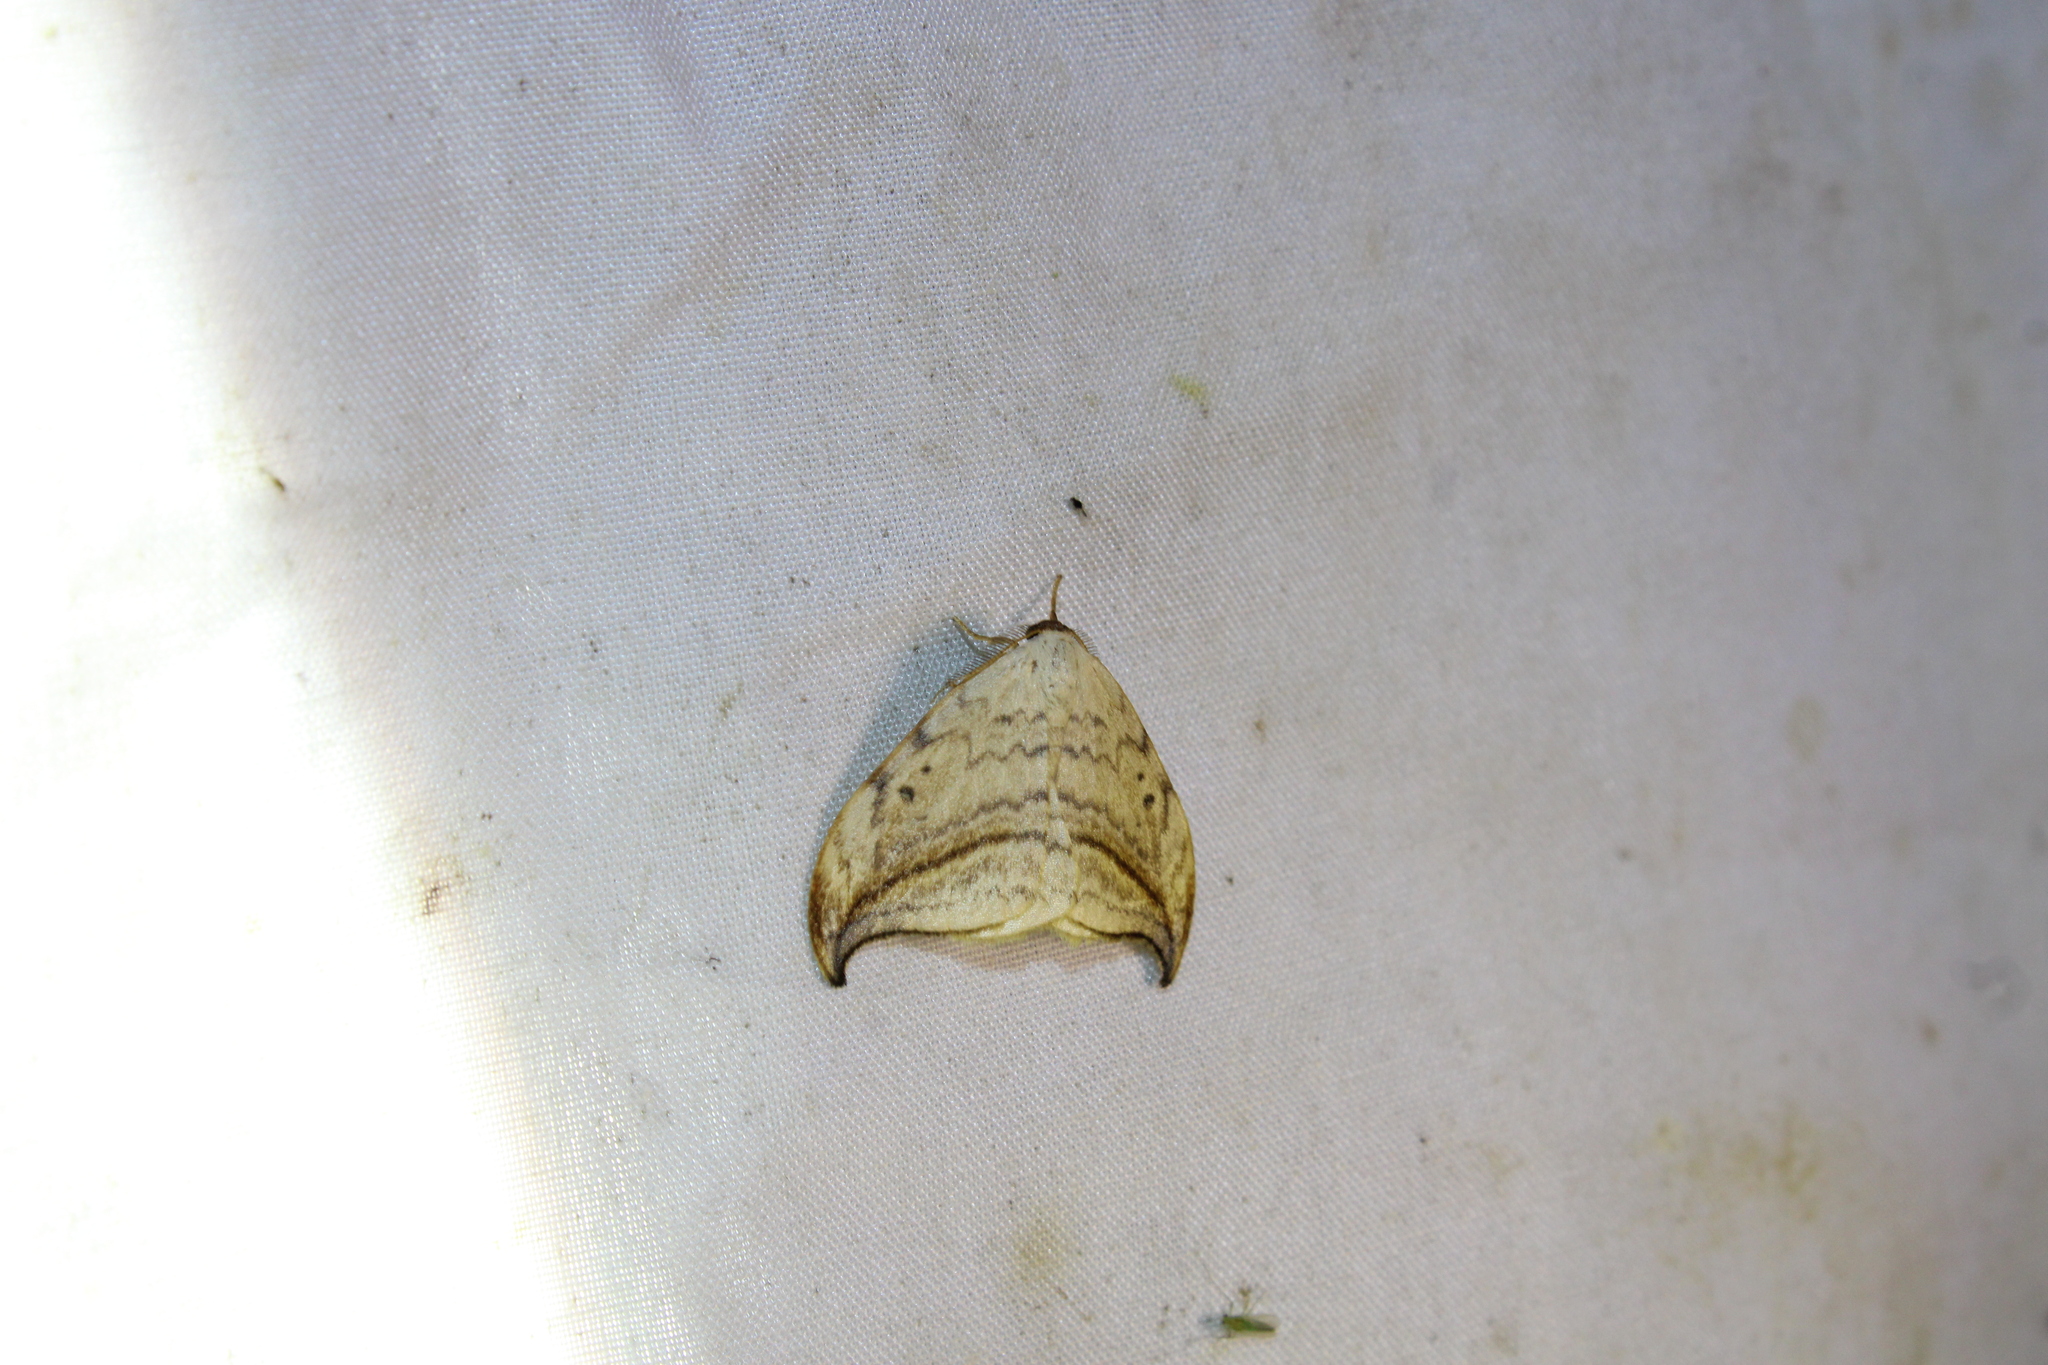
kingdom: Animalia
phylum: Arthropoda
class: Insecta
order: Lepidoptera
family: Drepanidae
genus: Drepana
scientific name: Drepana arcuata
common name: Arched hooktip moth
